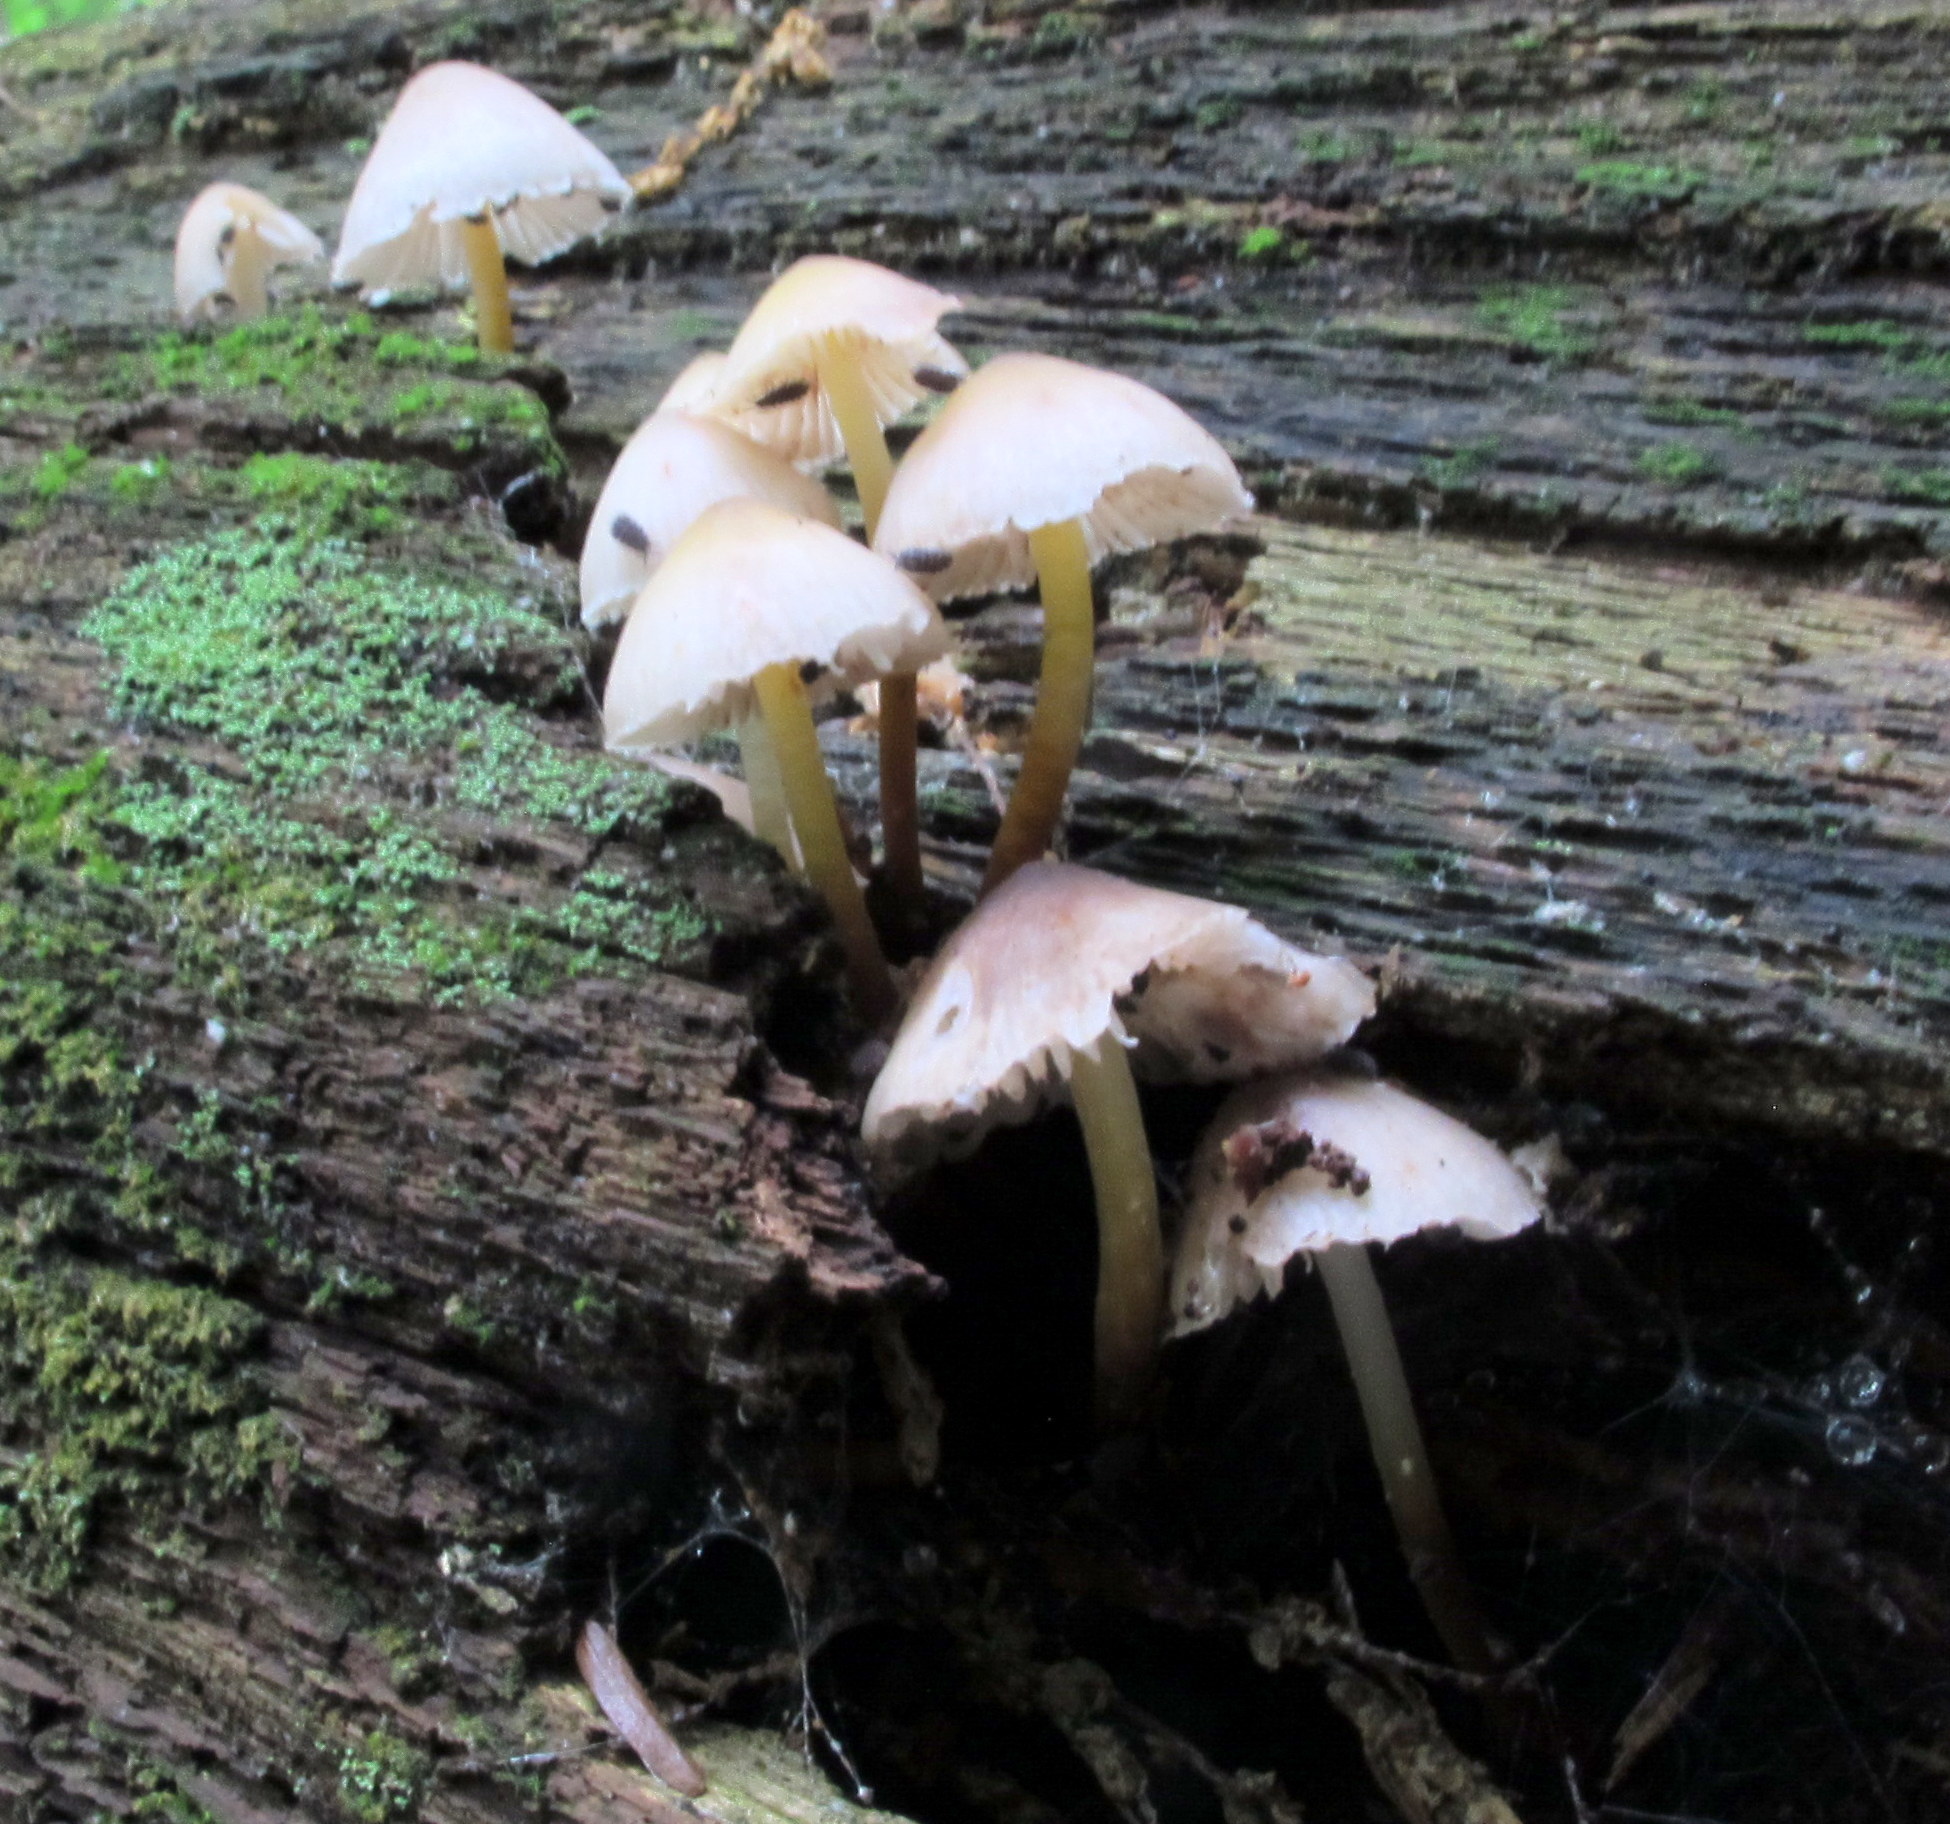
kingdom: Fungi
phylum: Basidiomycota
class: Agaricomycetes
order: Agaricales
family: Mycenaceae
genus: Mycena
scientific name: Mycena inclinata
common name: Clustered bonnet
